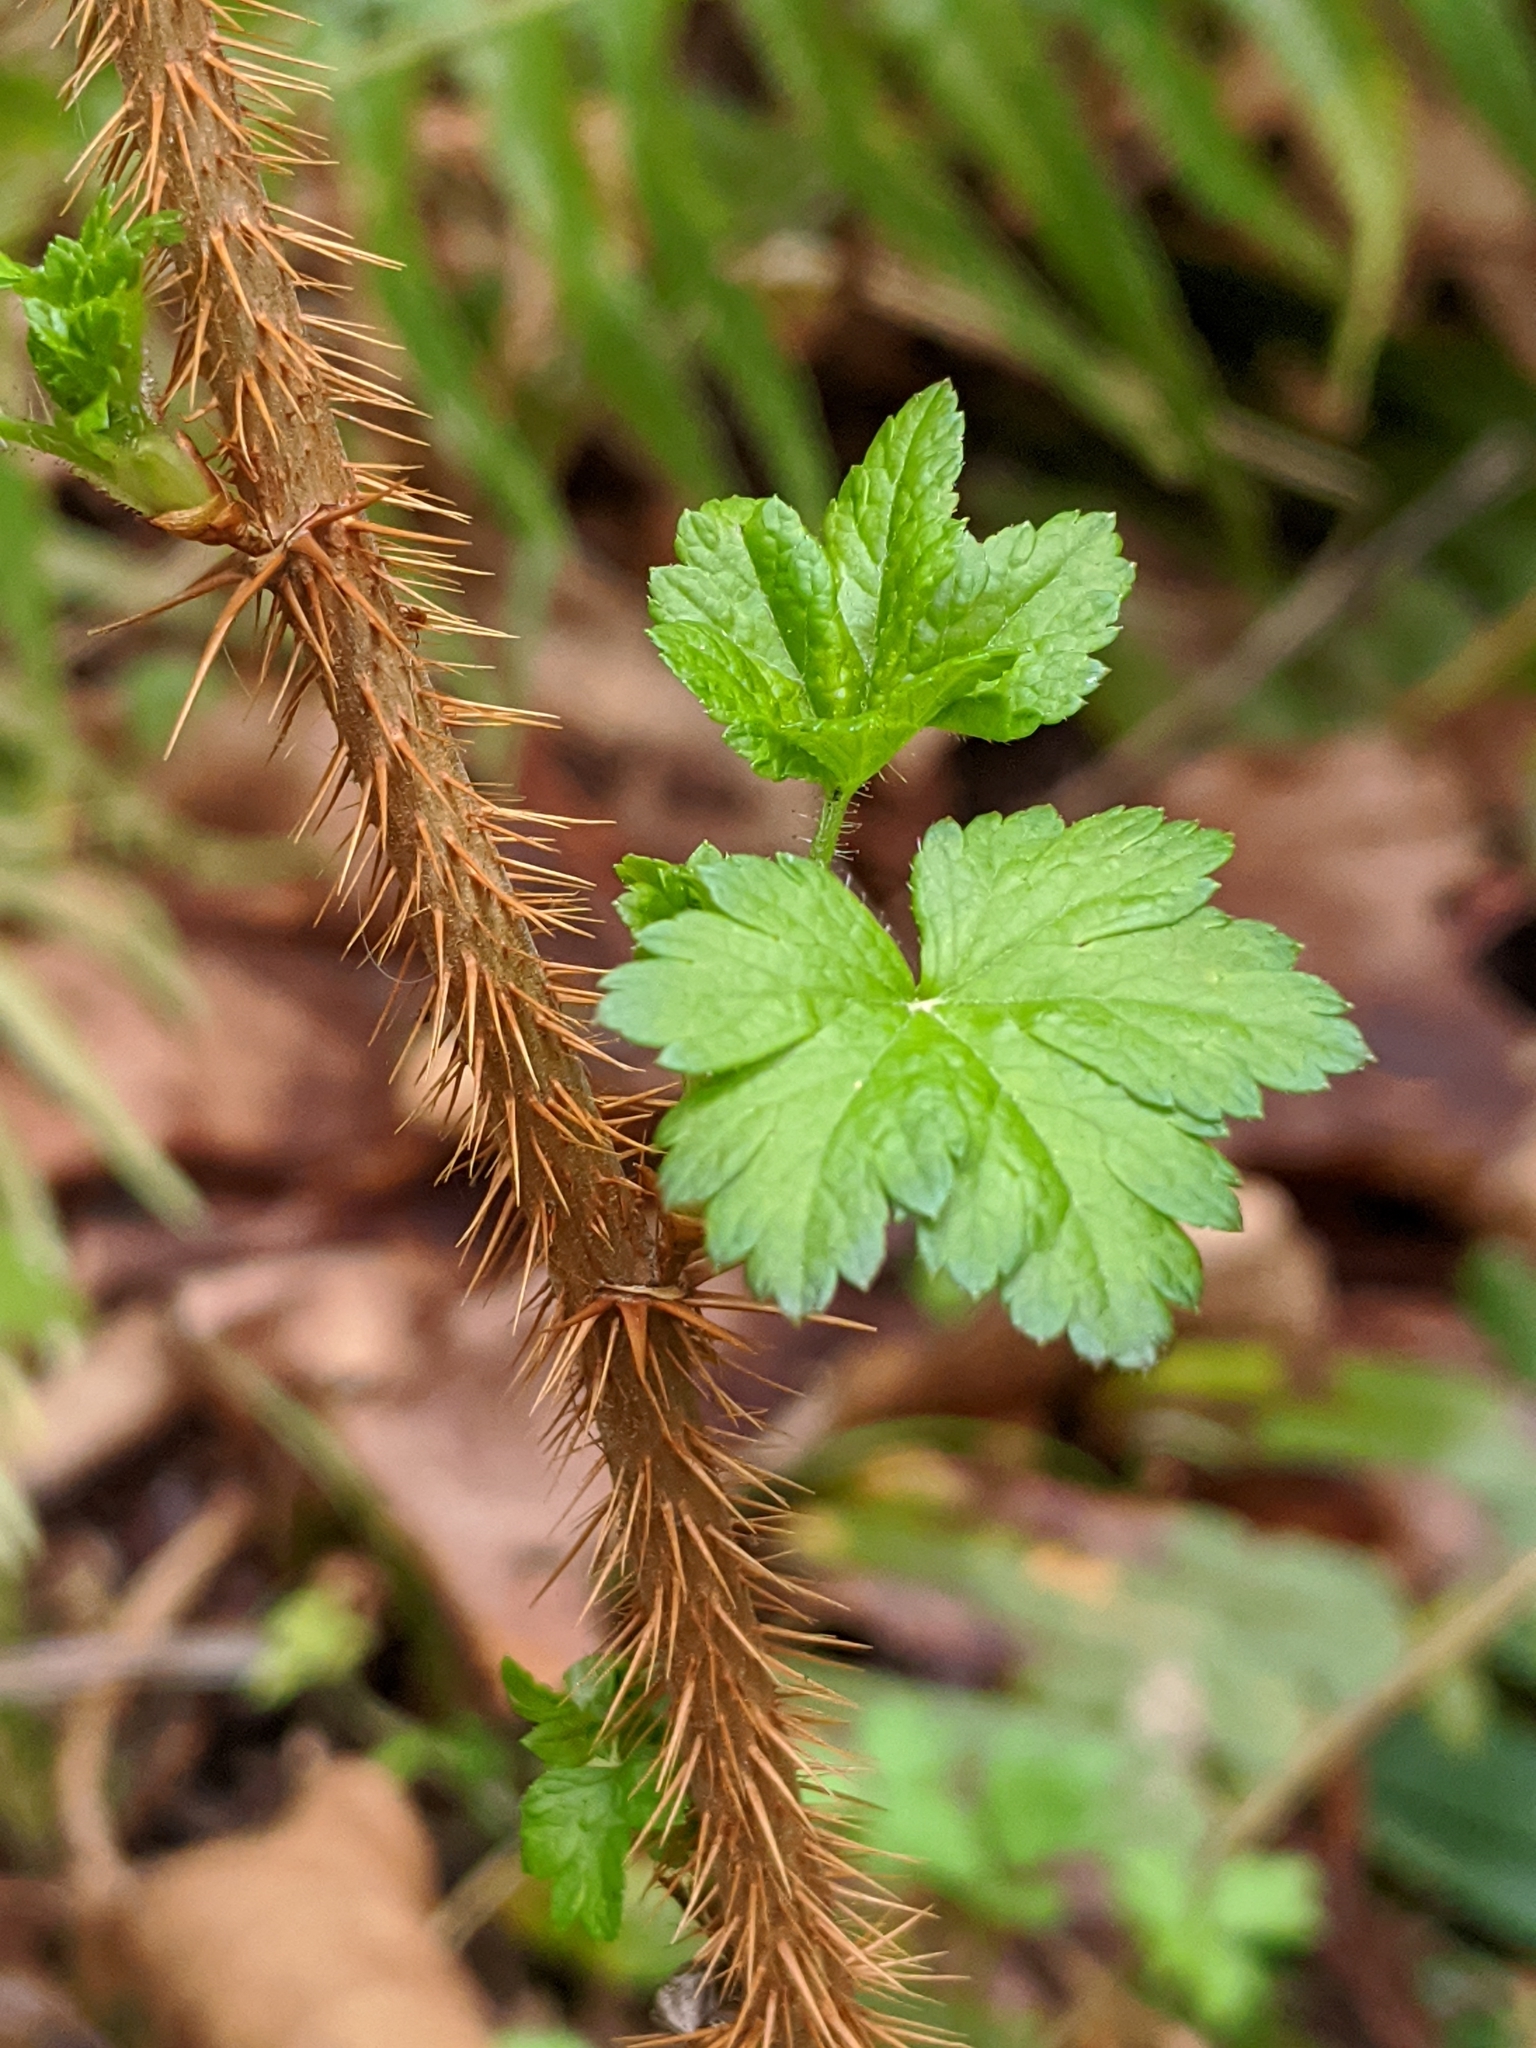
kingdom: Plantae
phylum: Tracheophyta
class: Magnoliopsida
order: Saxifragales
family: Grossulariaceae
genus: Ribes
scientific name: Ribes lacustre
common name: Black gooseberry
